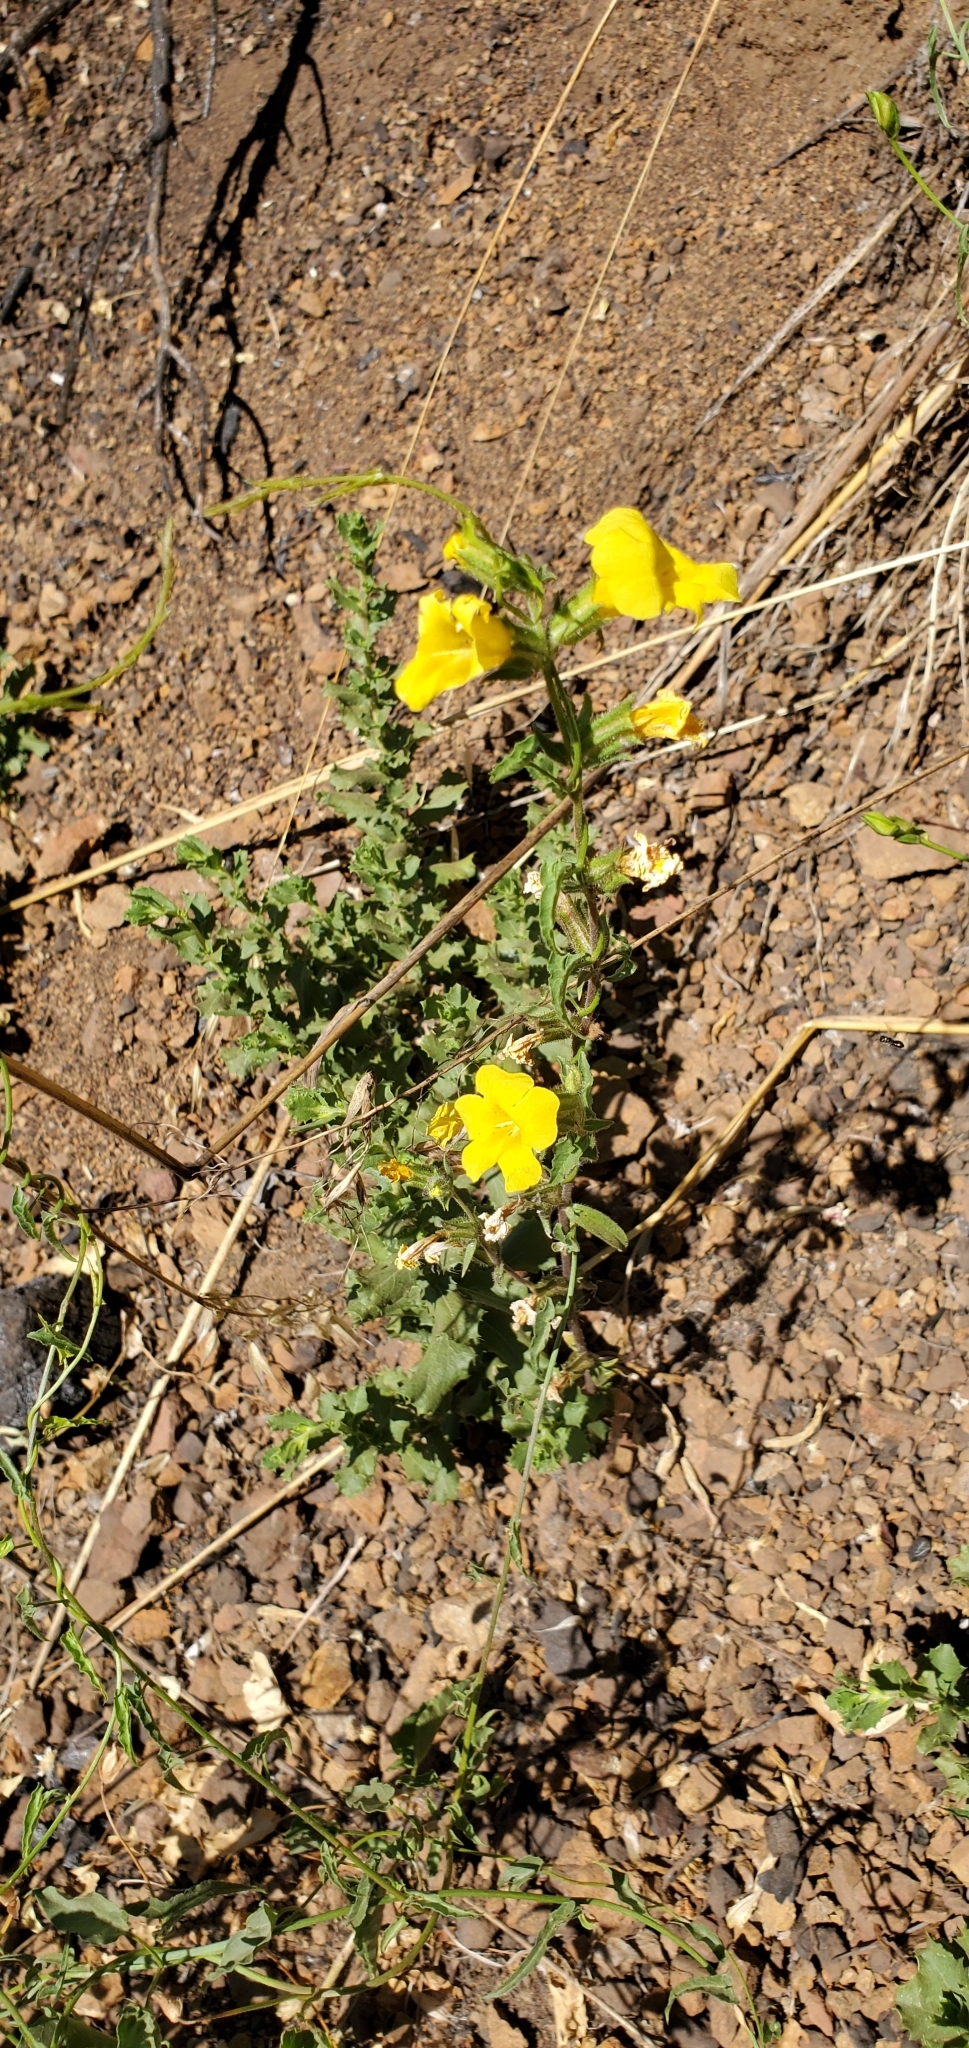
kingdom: Plantae
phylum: Tracheophyta
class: Magnoliopsida
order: Lamiales
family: Phrymaceae
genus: Diplacus
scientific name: Diplacus brevipes
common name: Wide-throat yellow monkey-flower
